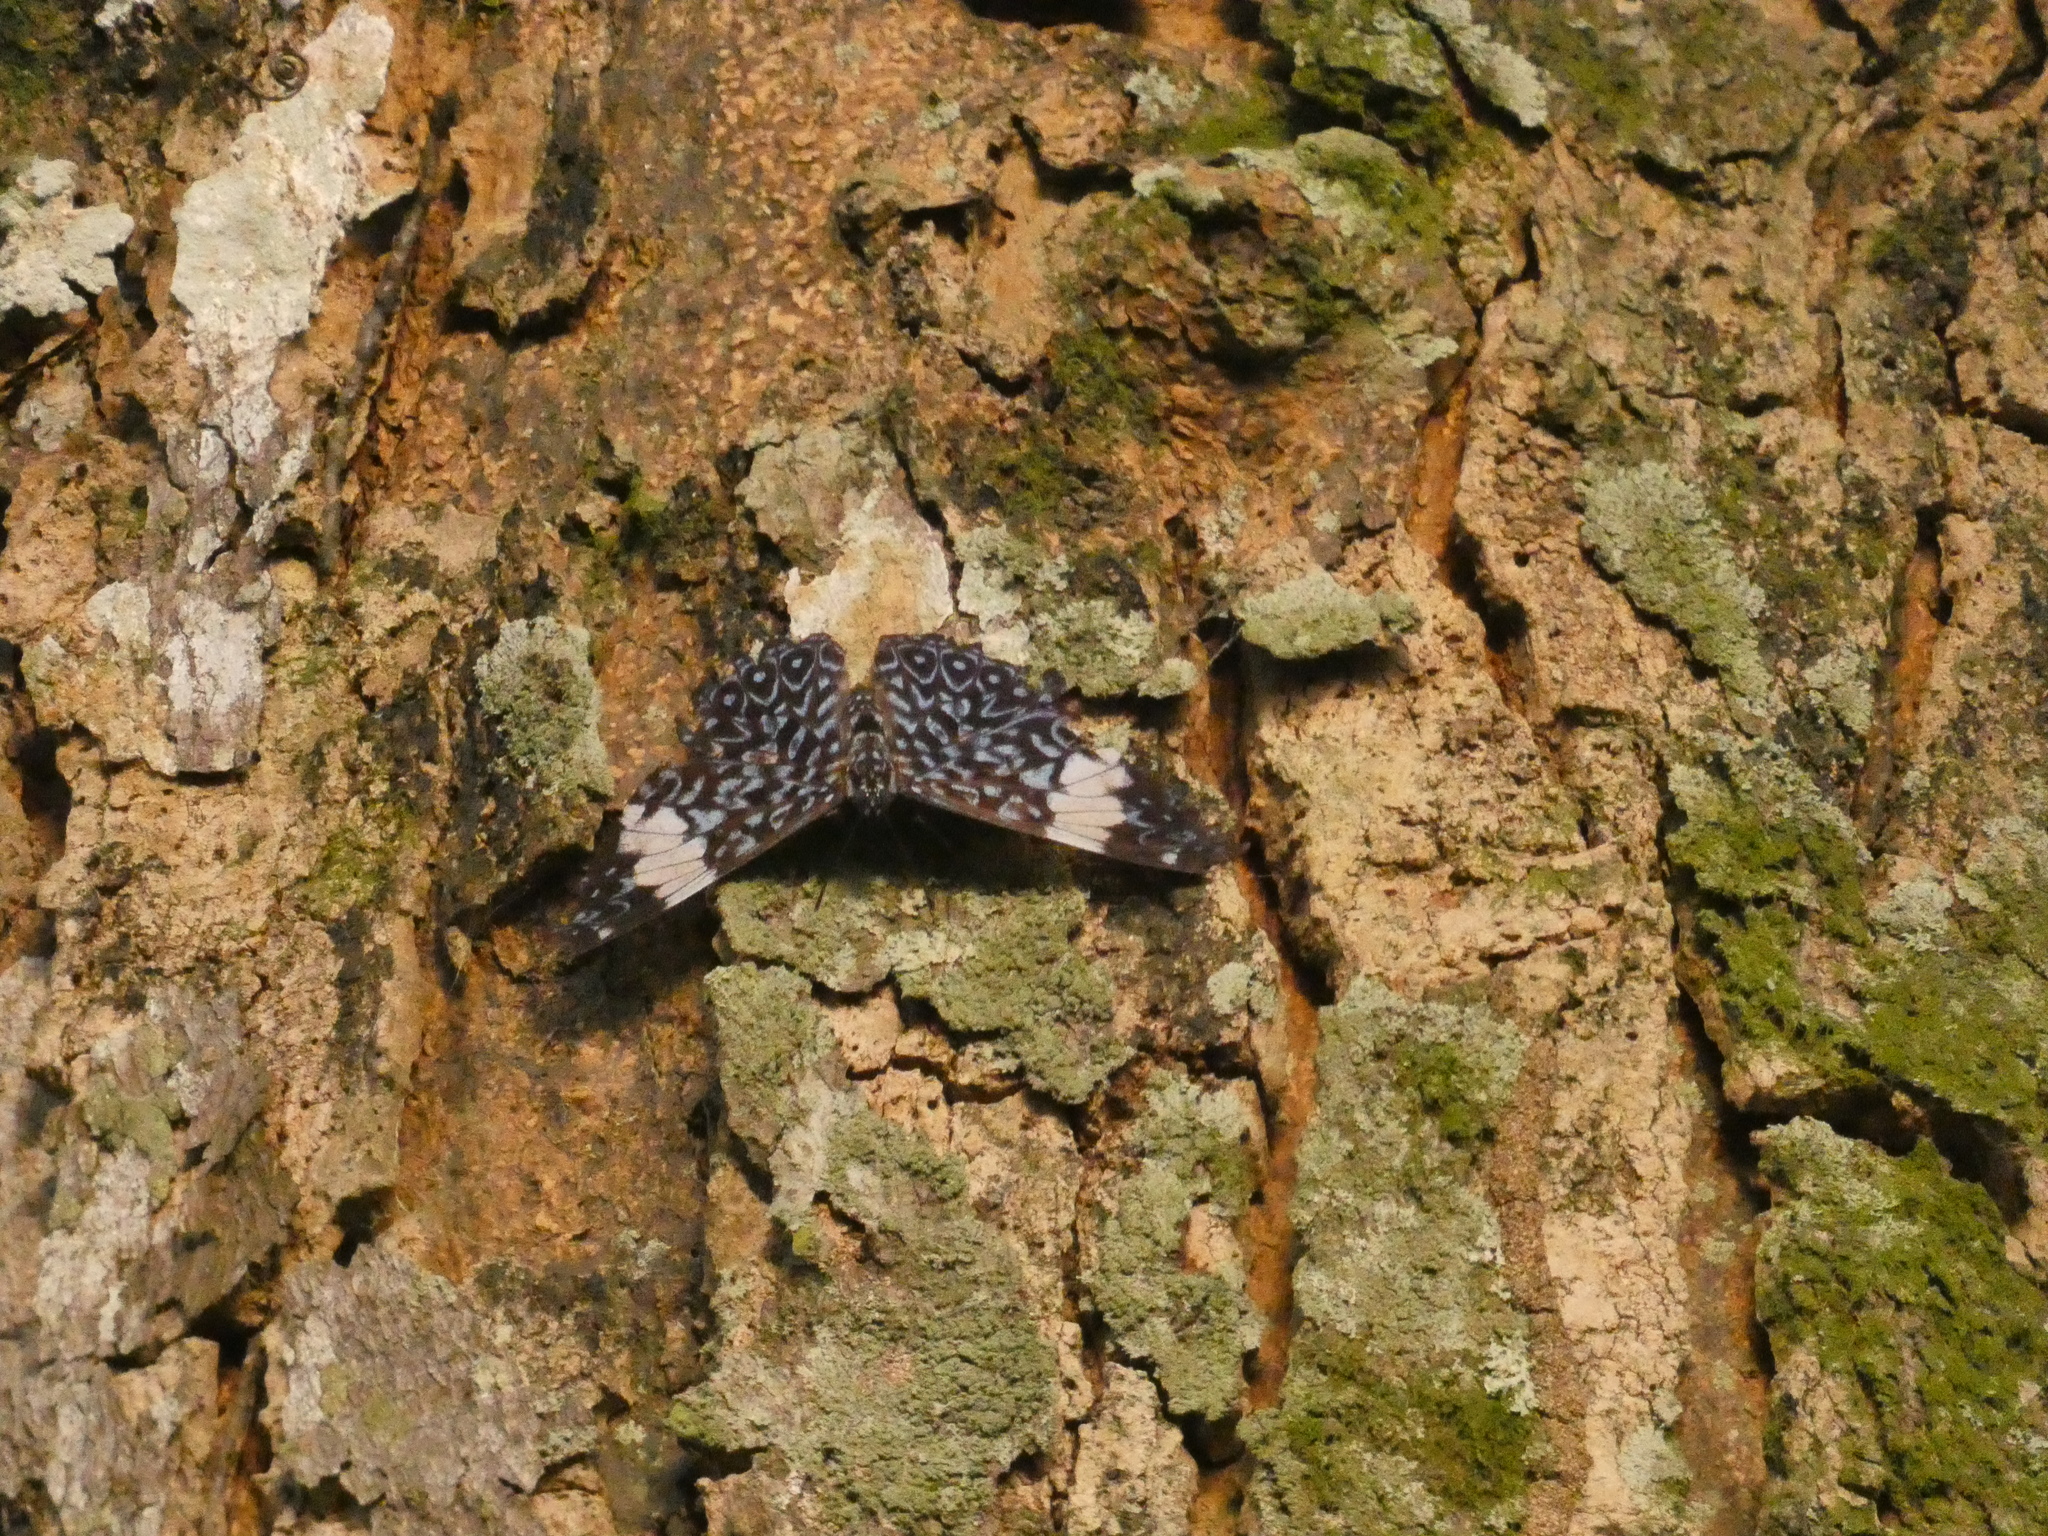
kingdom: Animalia
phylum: Arthropoda
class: Insecta
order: Lepidoptera
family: Nymphalidae
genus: Hamadryas
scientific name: Hamadryas amphinome
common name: Red cracker
